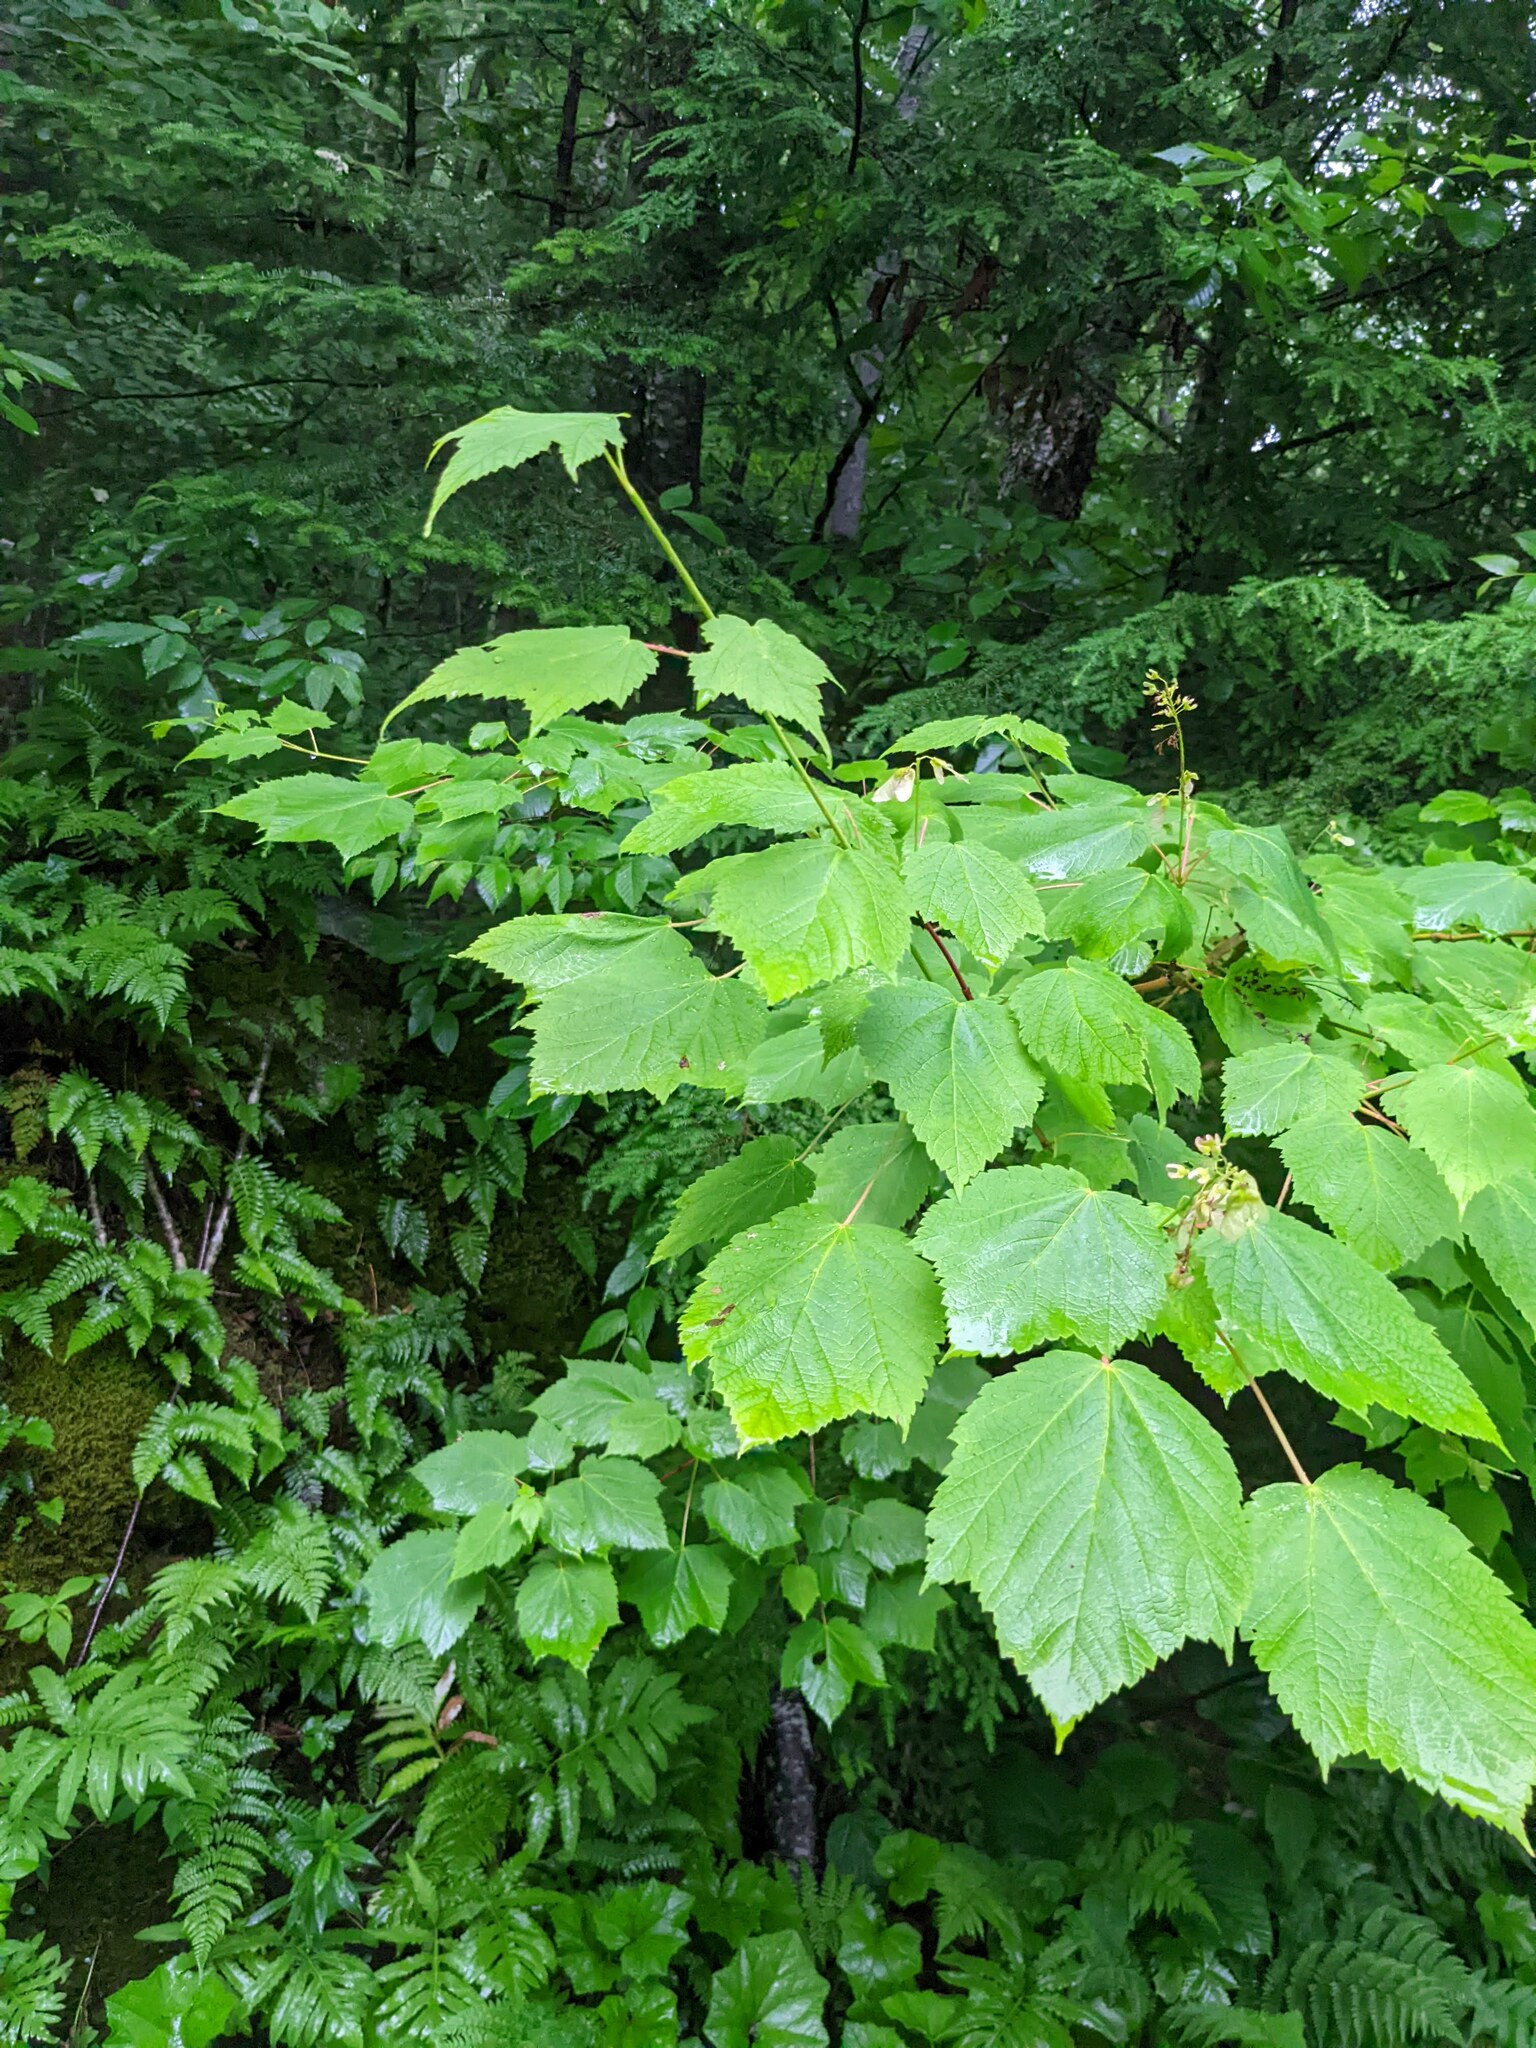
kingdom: Plantae
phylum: Tracheophyta
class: Magnoliopsida
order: Sapindales
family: Sapindaceae
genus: Acer
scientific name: Acer pensylvanicum
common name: Moosewood
